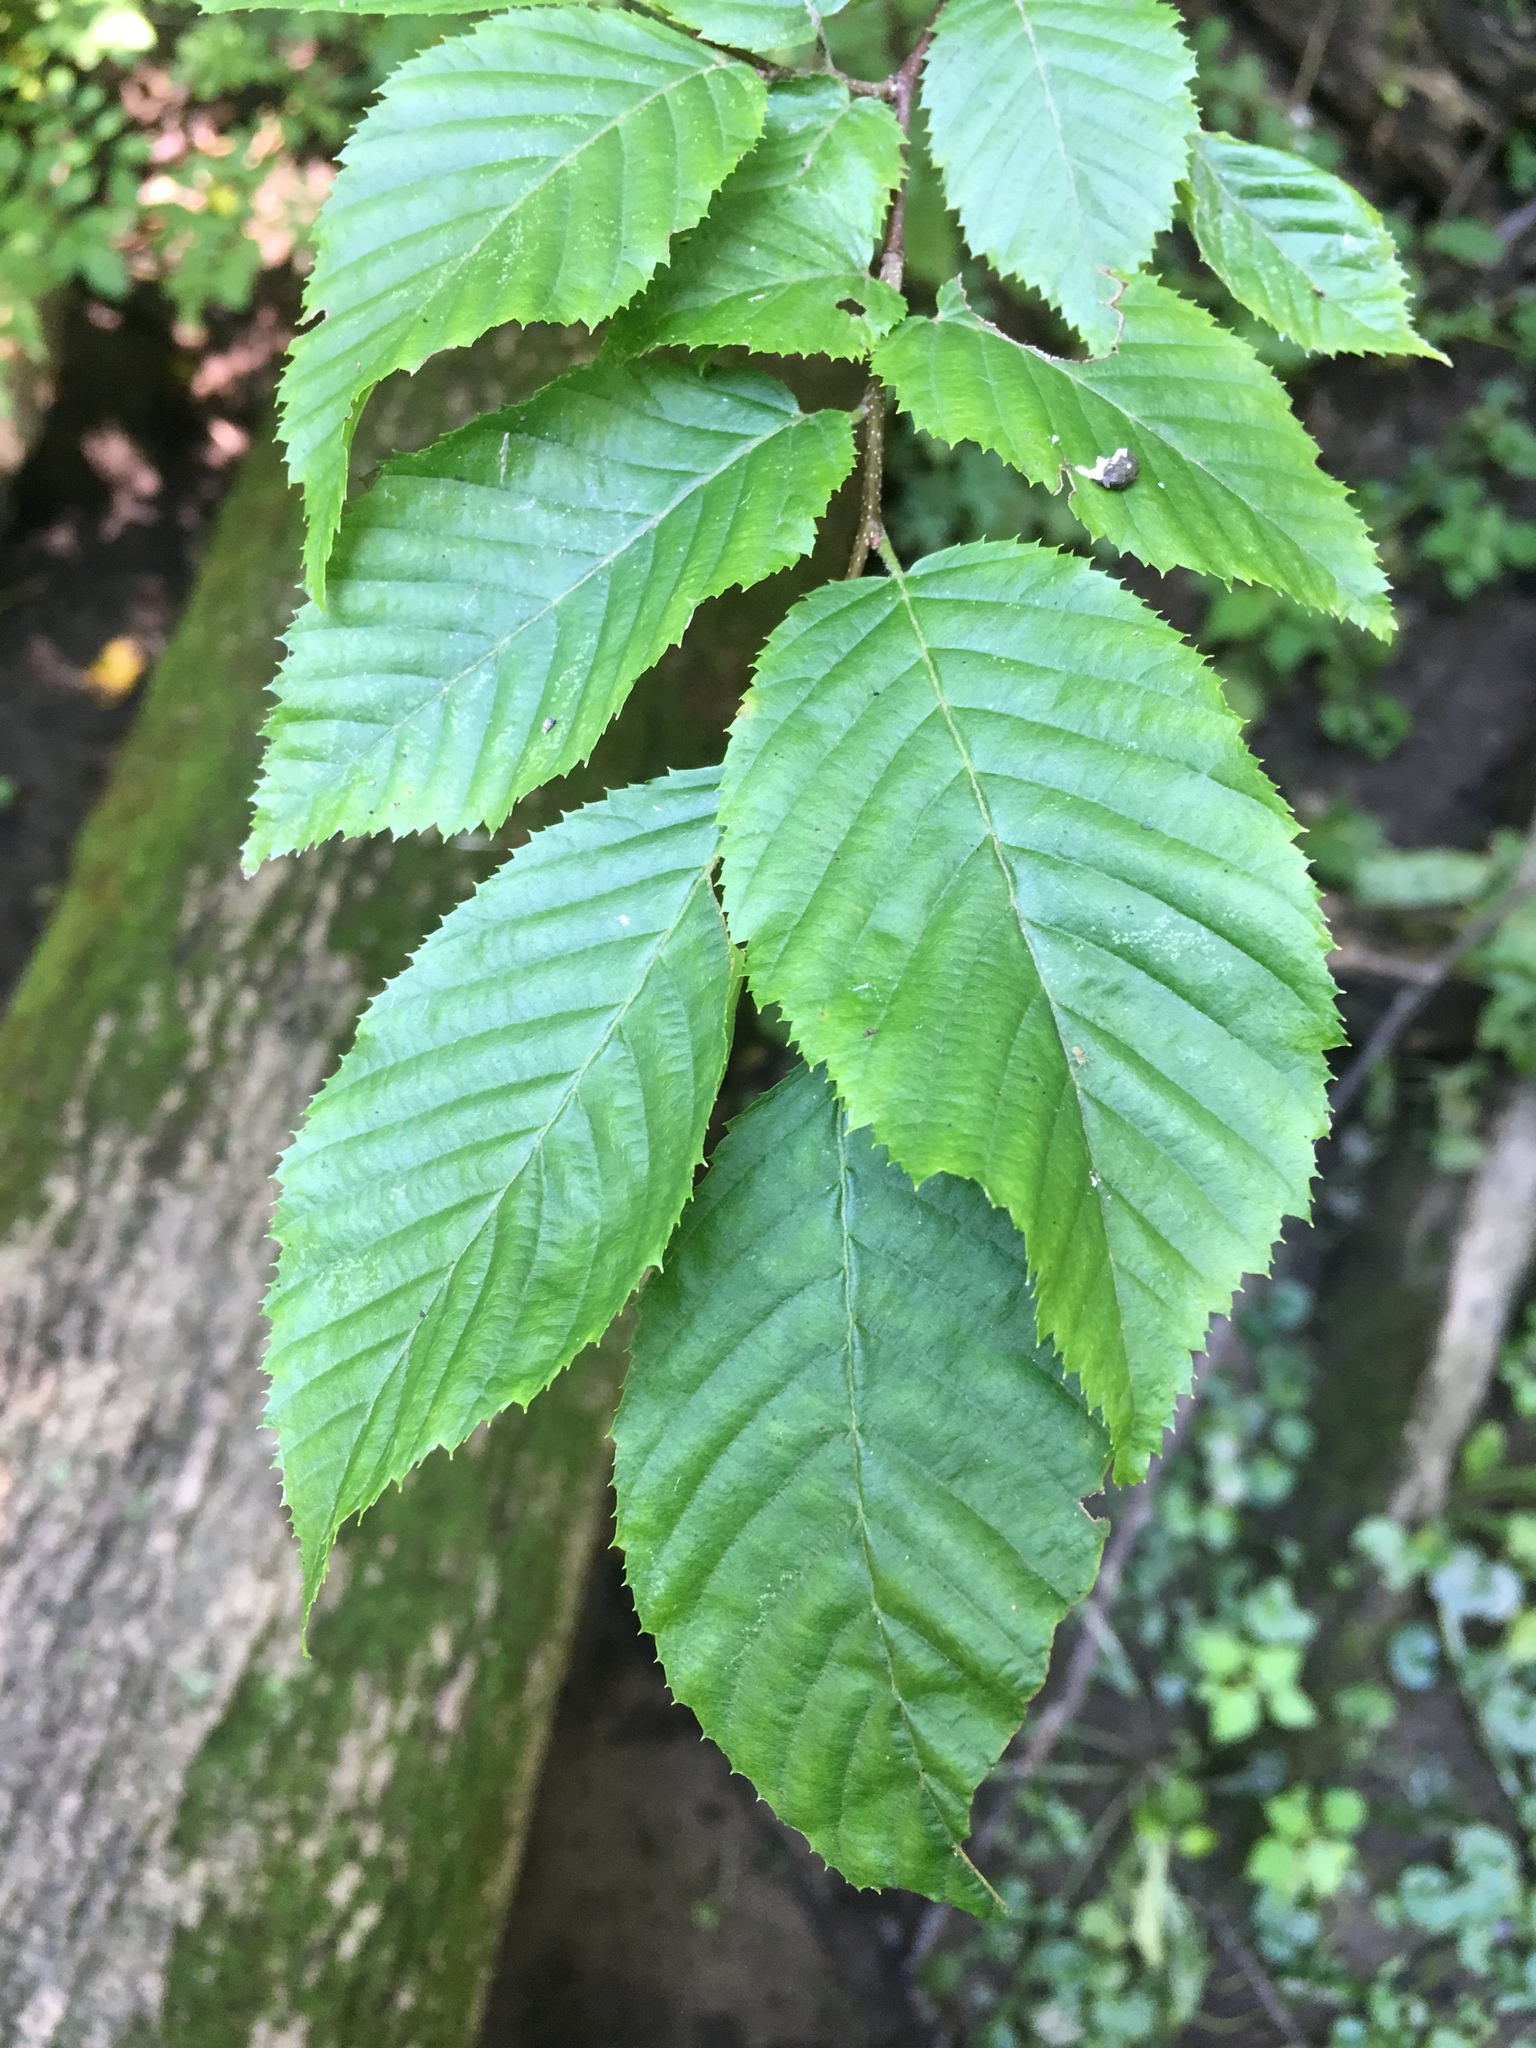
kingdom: Plantae
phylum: Tracheophyta
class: Magnoliopsida
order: Fagales
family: Betulaceae
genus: Carpinus
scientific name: Carpinus caroliniana
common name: American hornbeam
